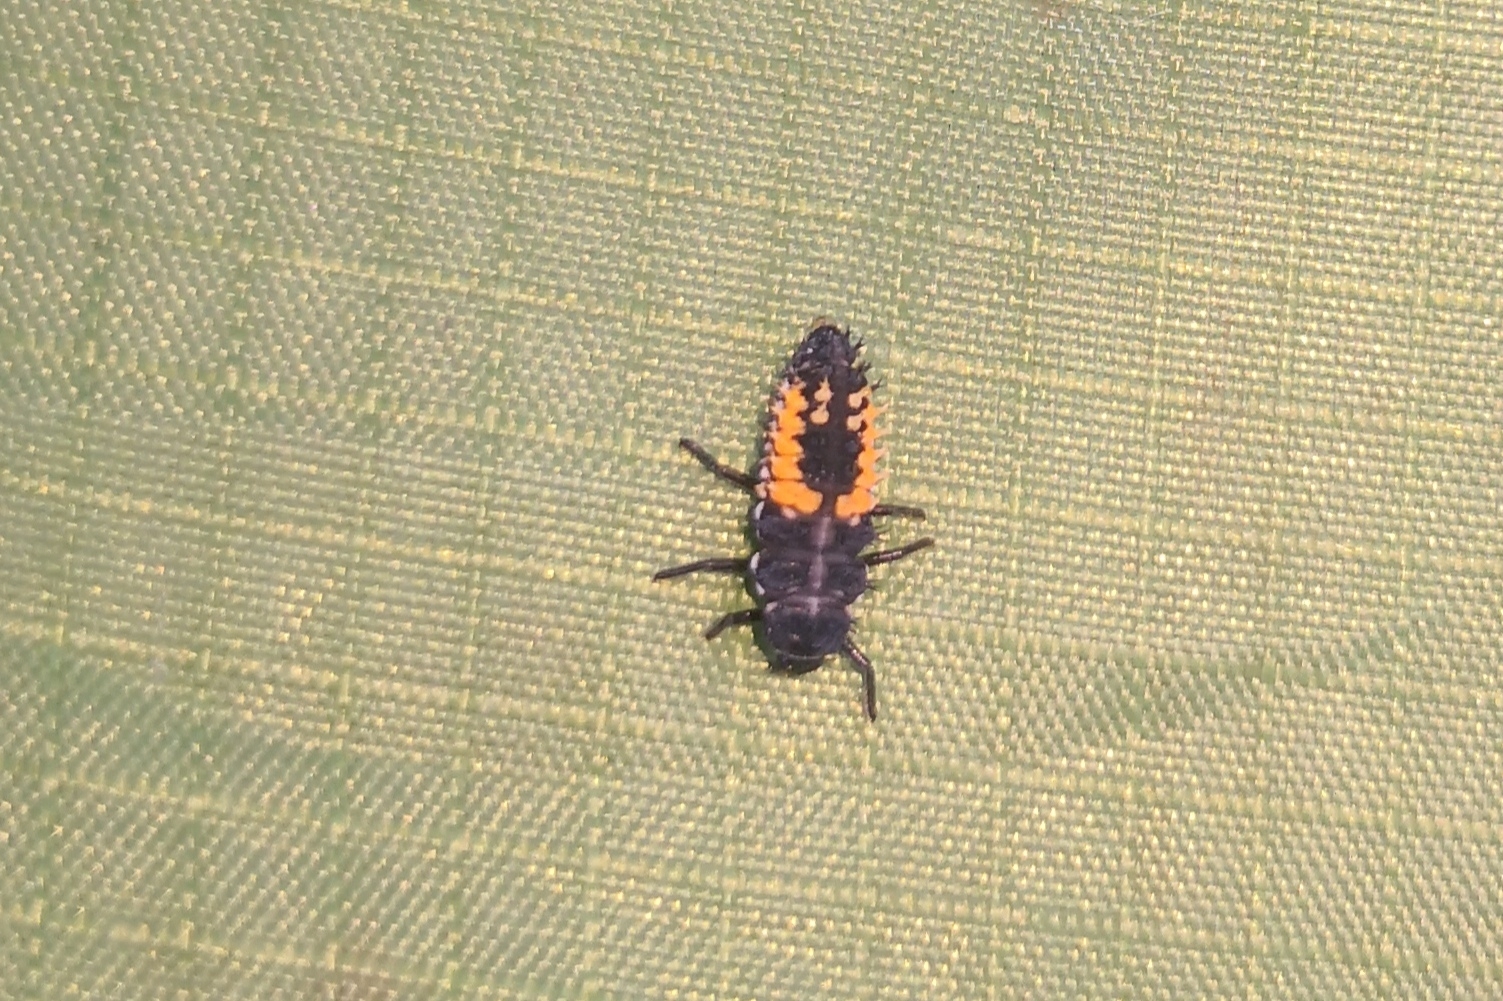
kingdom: Animalia
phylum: Arthropoda
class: Insecta
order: Coleoptera
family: Coccinellidae
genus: Harmonia
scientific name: Harmonia axyridis
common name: Harlequin ladybird
